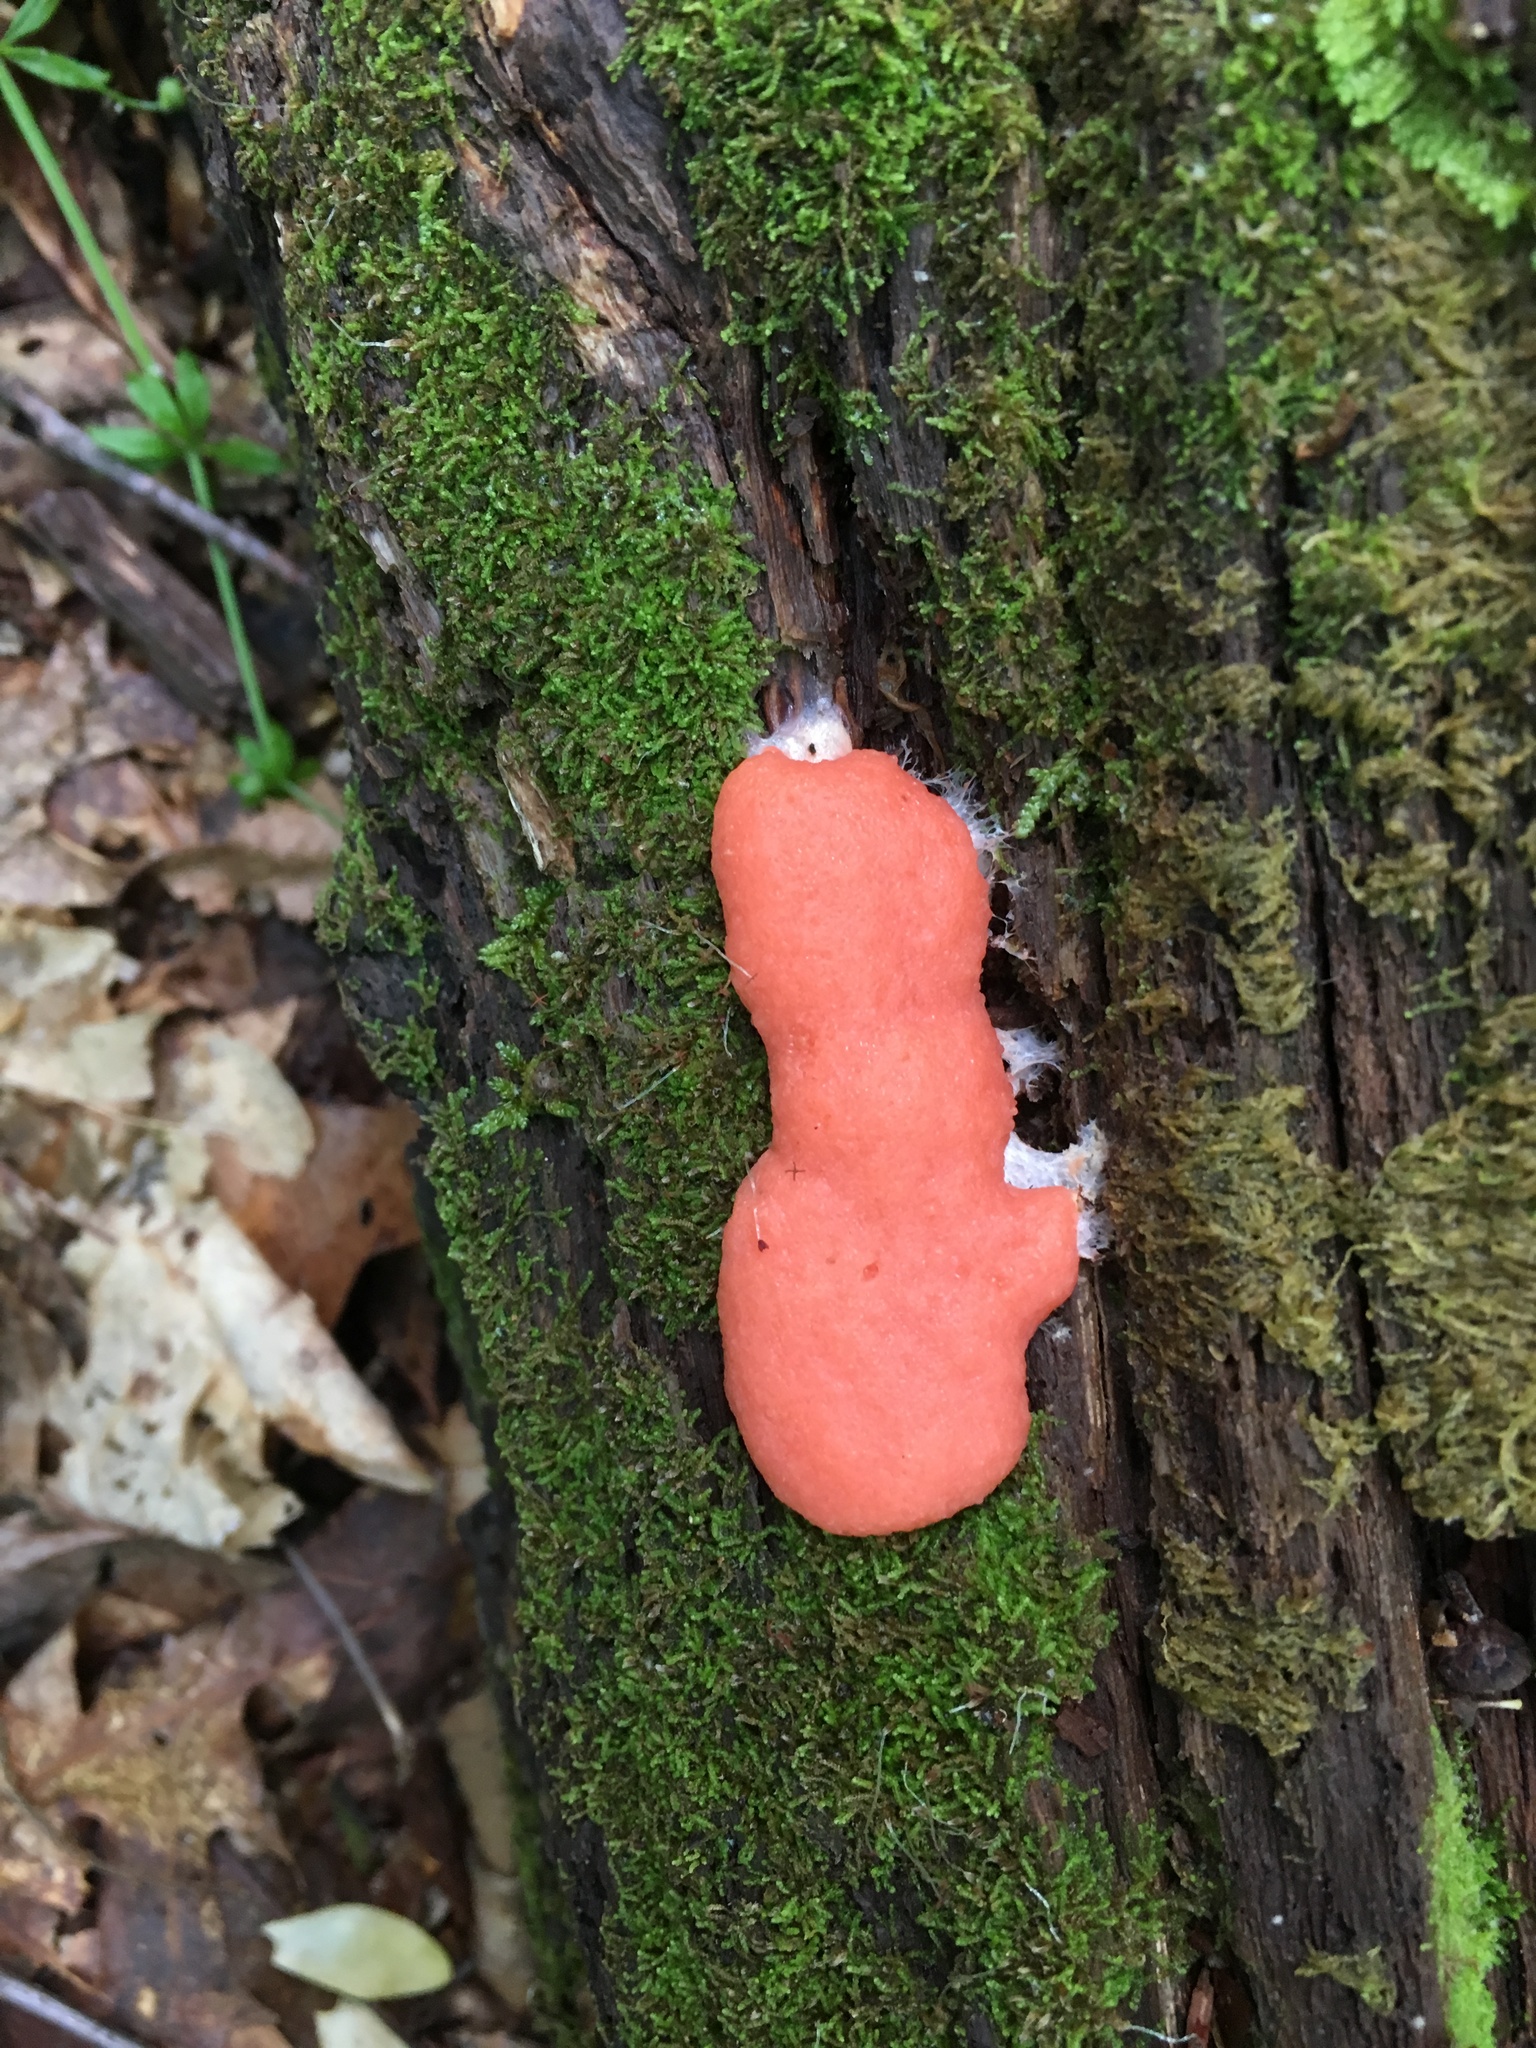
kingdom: Protozoa
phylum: Mycetozoa
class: Myxomycetes
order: Cribrariales
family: Tubiferaceae
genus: Tubifera
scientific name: Tubifera ferruginosa
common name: Red raspberry slime mold
